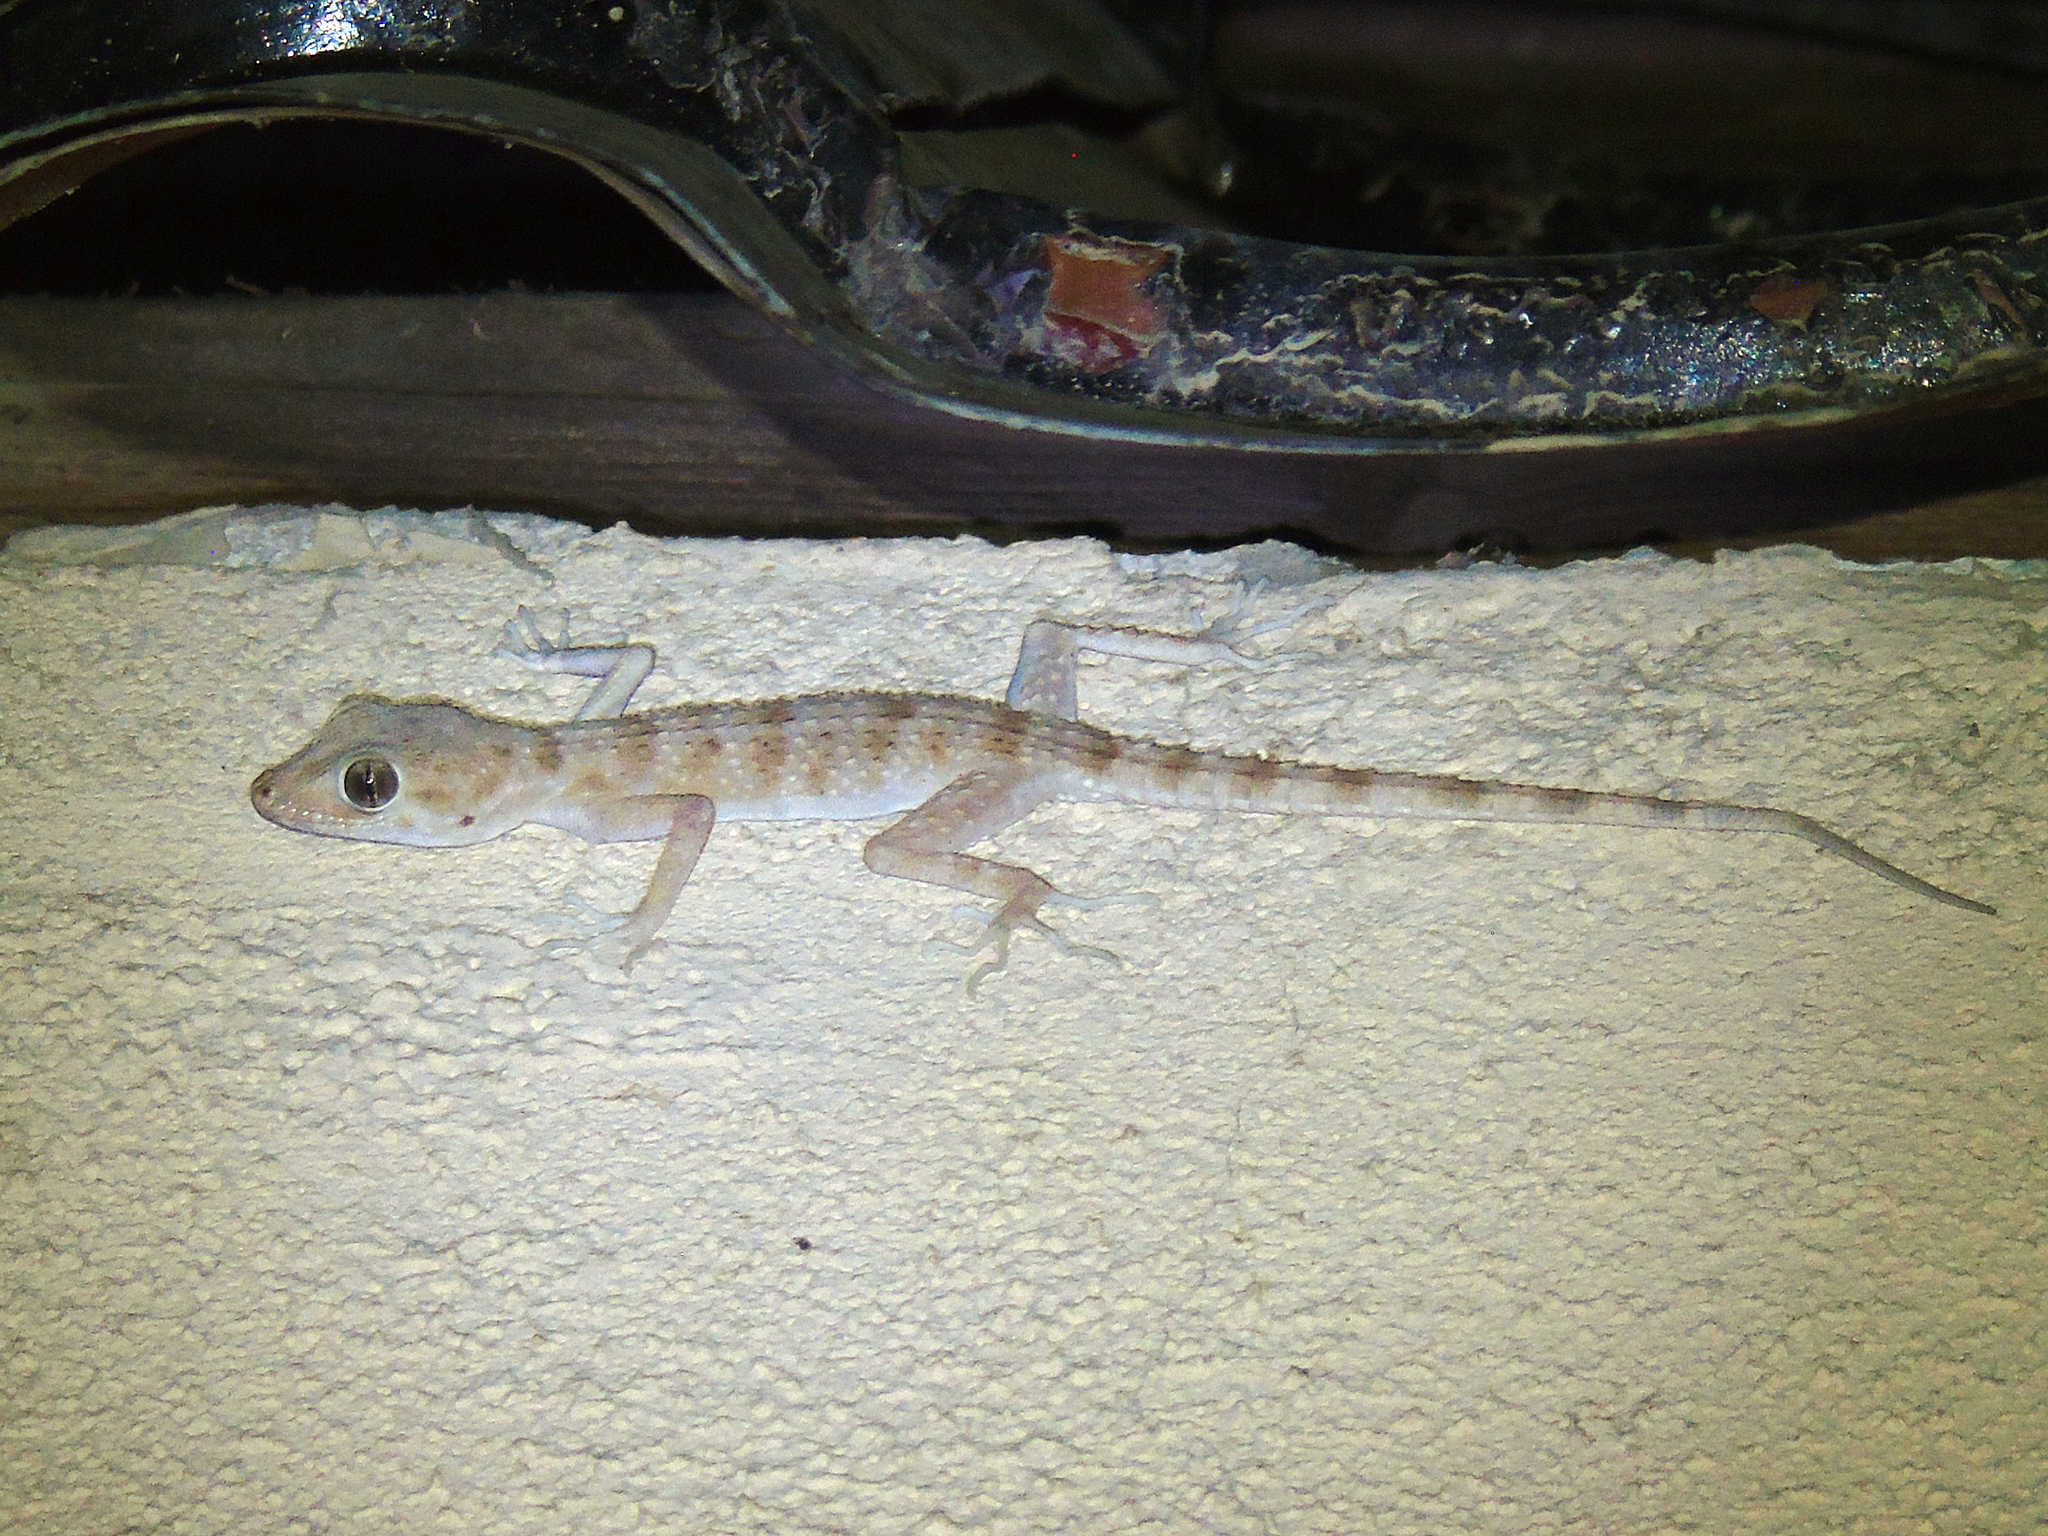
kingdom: Animalia
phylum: Chordata
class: Squamata
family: Gekkonidae
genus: Tenuidactylus
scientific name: Tenuidactylus bogdanovi
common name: Bogdanov’s thin-toed gecko
